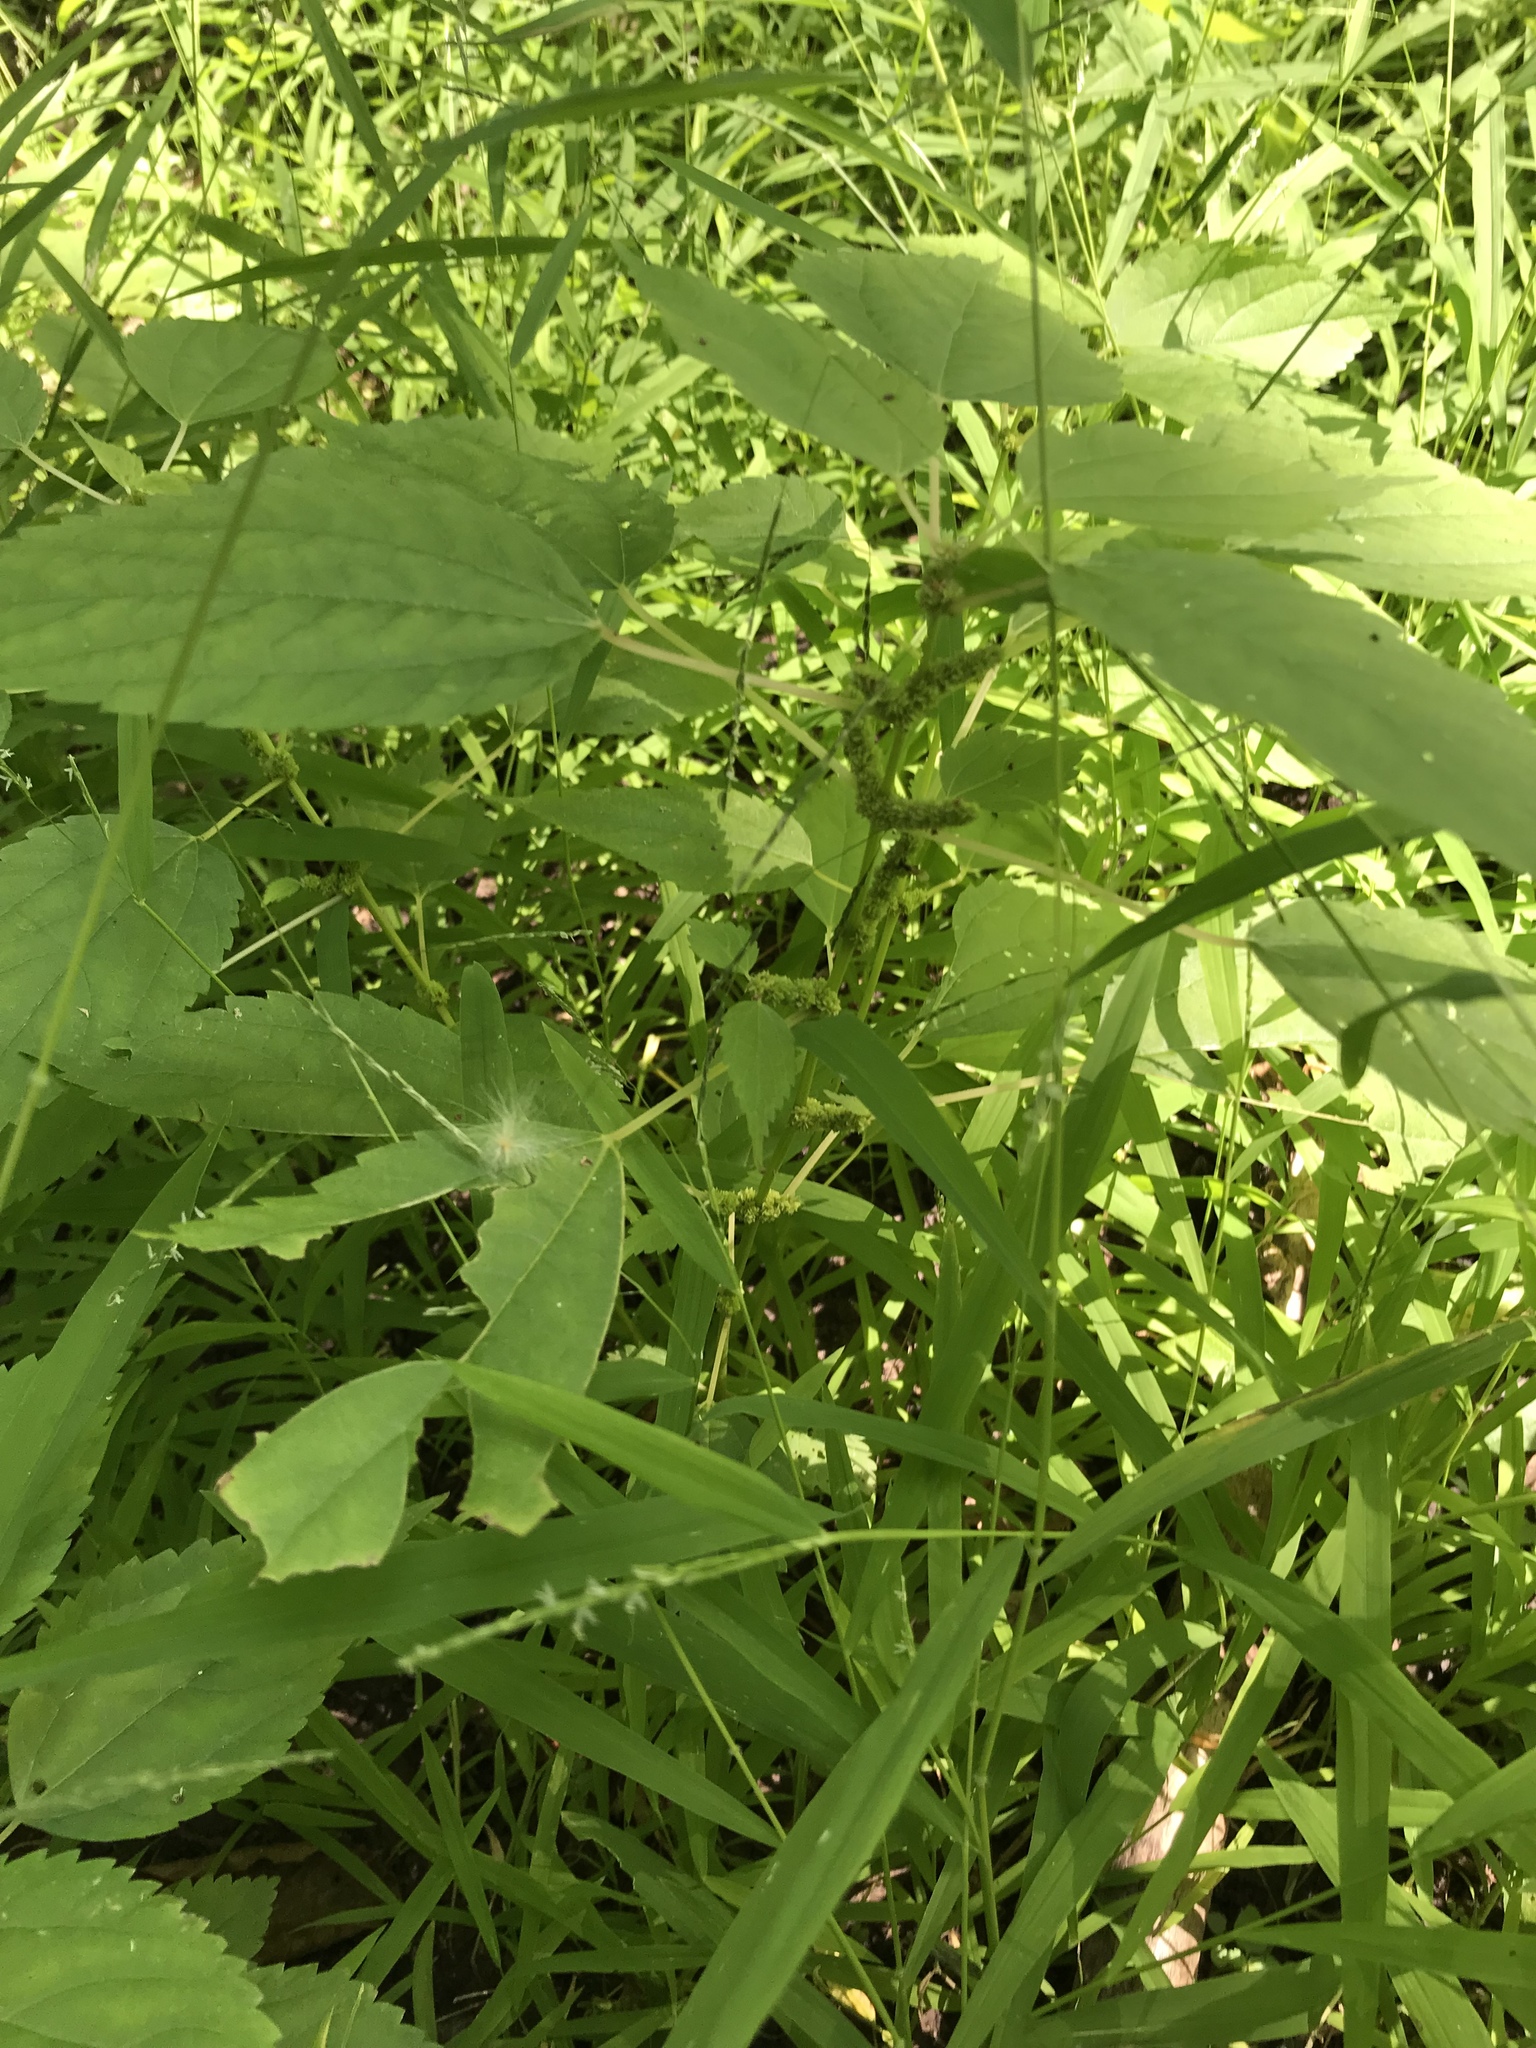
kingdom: Plantae
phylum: Tracheophyta
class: Magnoliopsida
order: Rosales
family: Urticaceae
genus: Boehmeria
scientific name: Boehmeria cylindrica
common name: Bog-hemp
